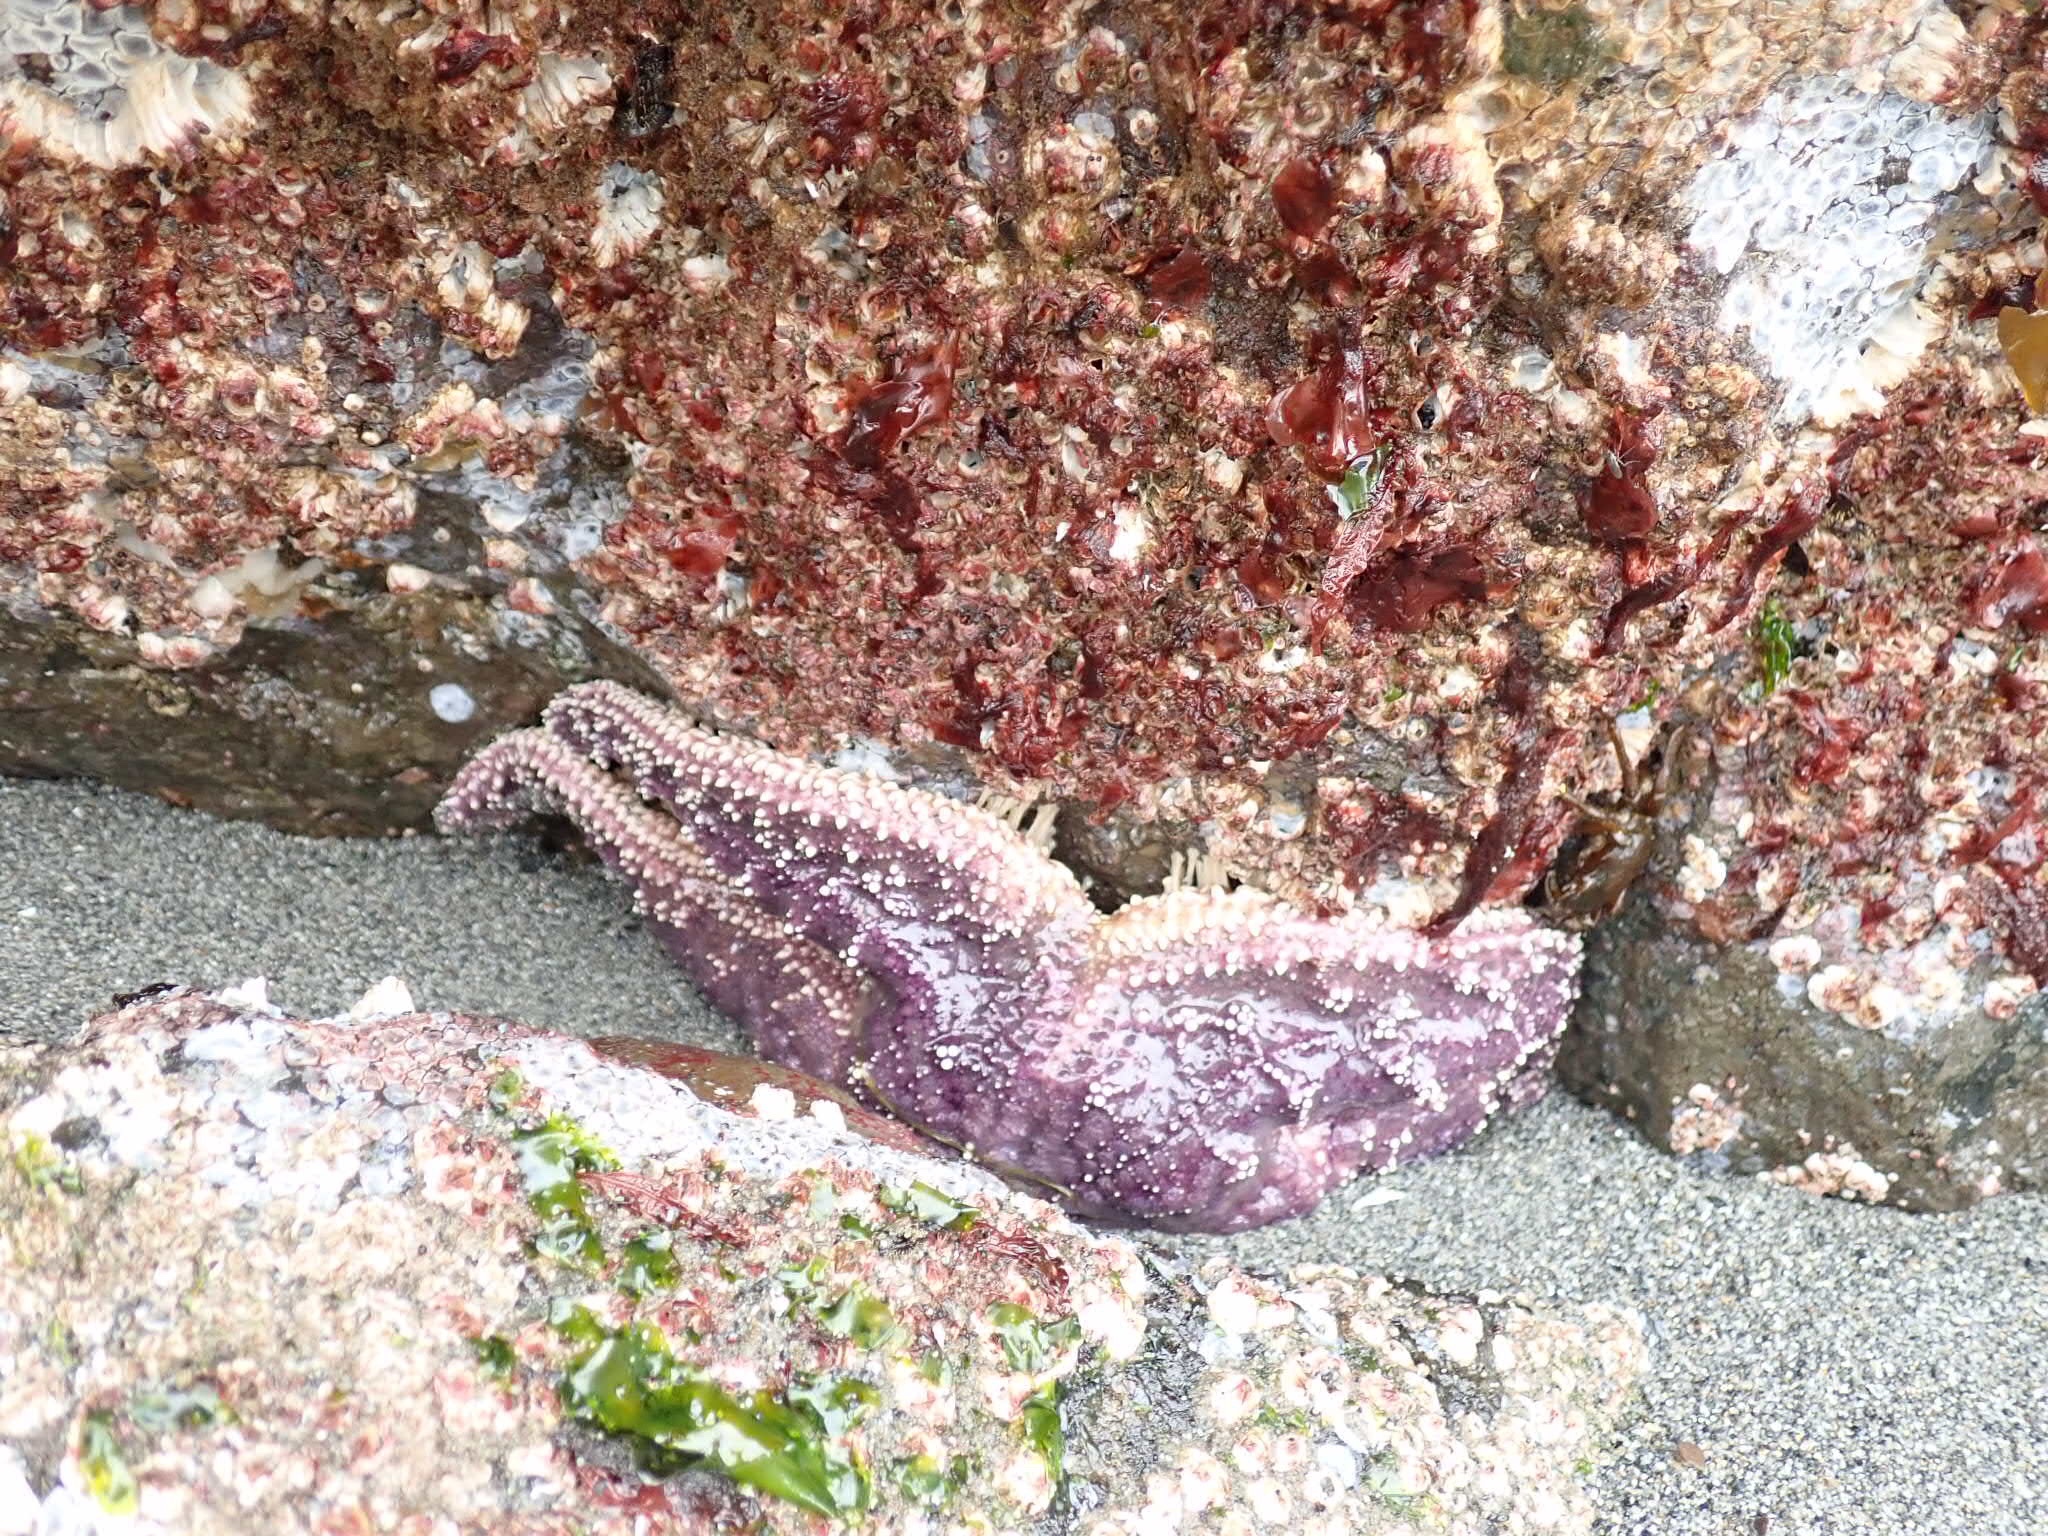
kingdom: Animalia
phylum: Echinodermata
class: Asteroidea
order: Forcipulatida
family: Asteriidae
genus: Pisaster
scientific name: Pisaster ochraceus
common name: Ochre stars
